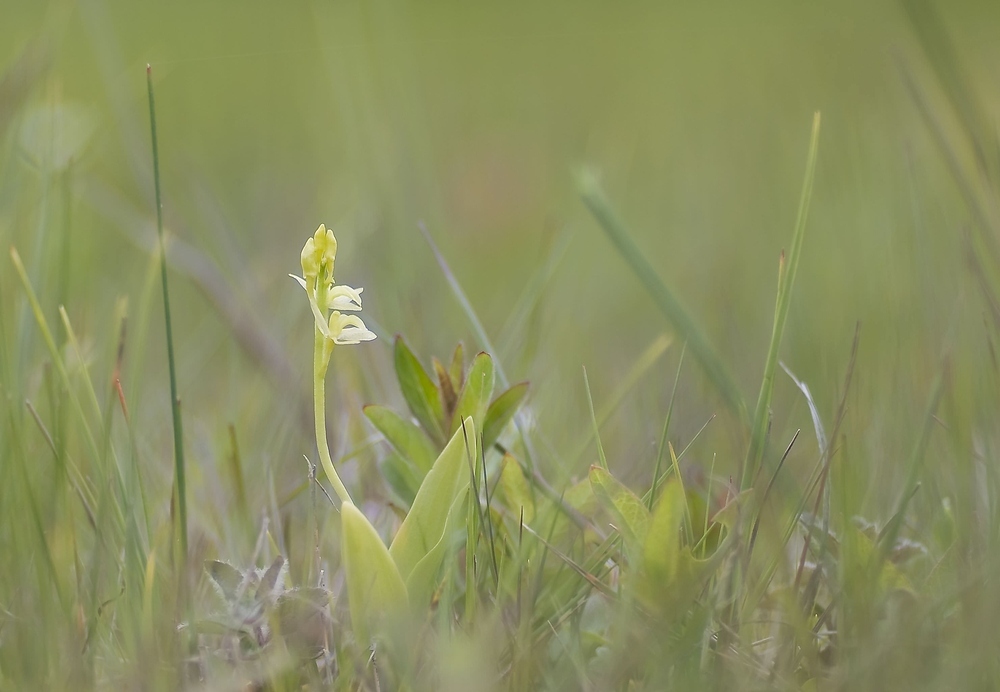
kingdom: Animalia
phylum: Arthropoda
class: Insecta
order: Coleoptera
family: Curculionidae
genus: Liparis
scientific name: Liparis loeselii
